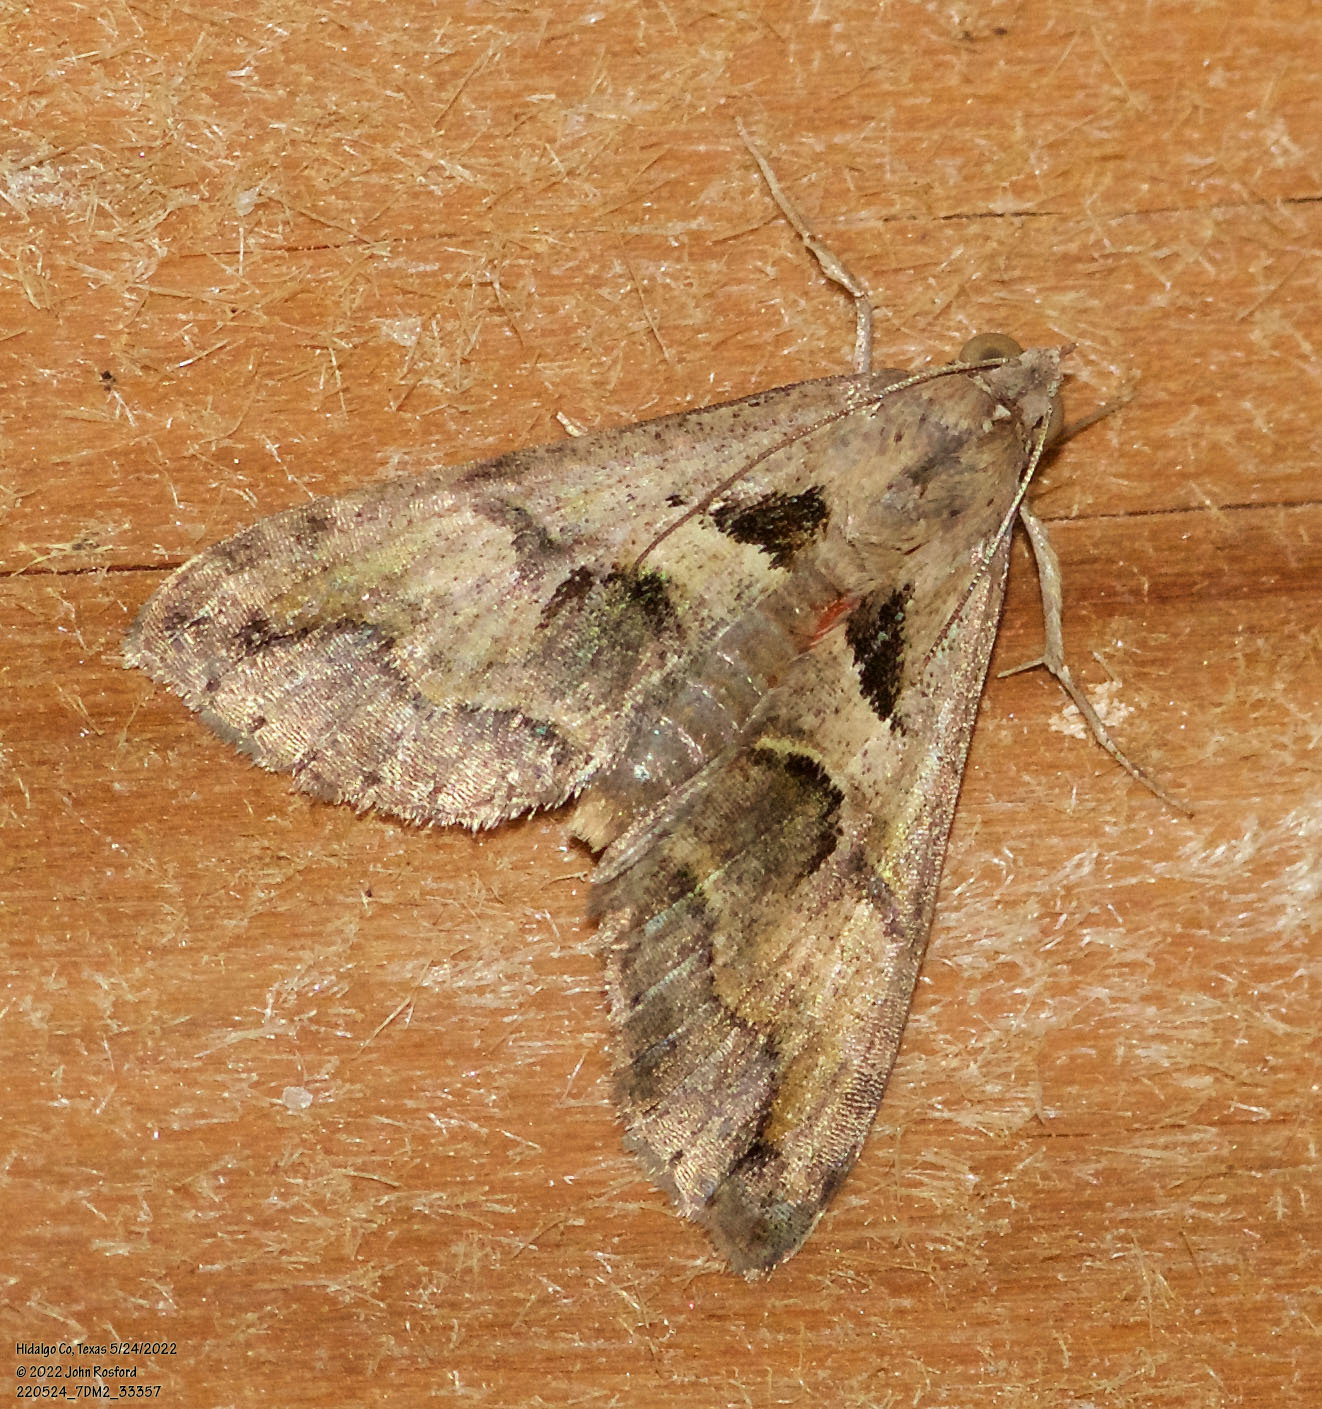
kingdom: Animalia
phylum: Arthropoda
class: Insecta
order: Lepidoptera
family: Erebidae
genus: Melipotis
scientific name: Melipotis cellaris
